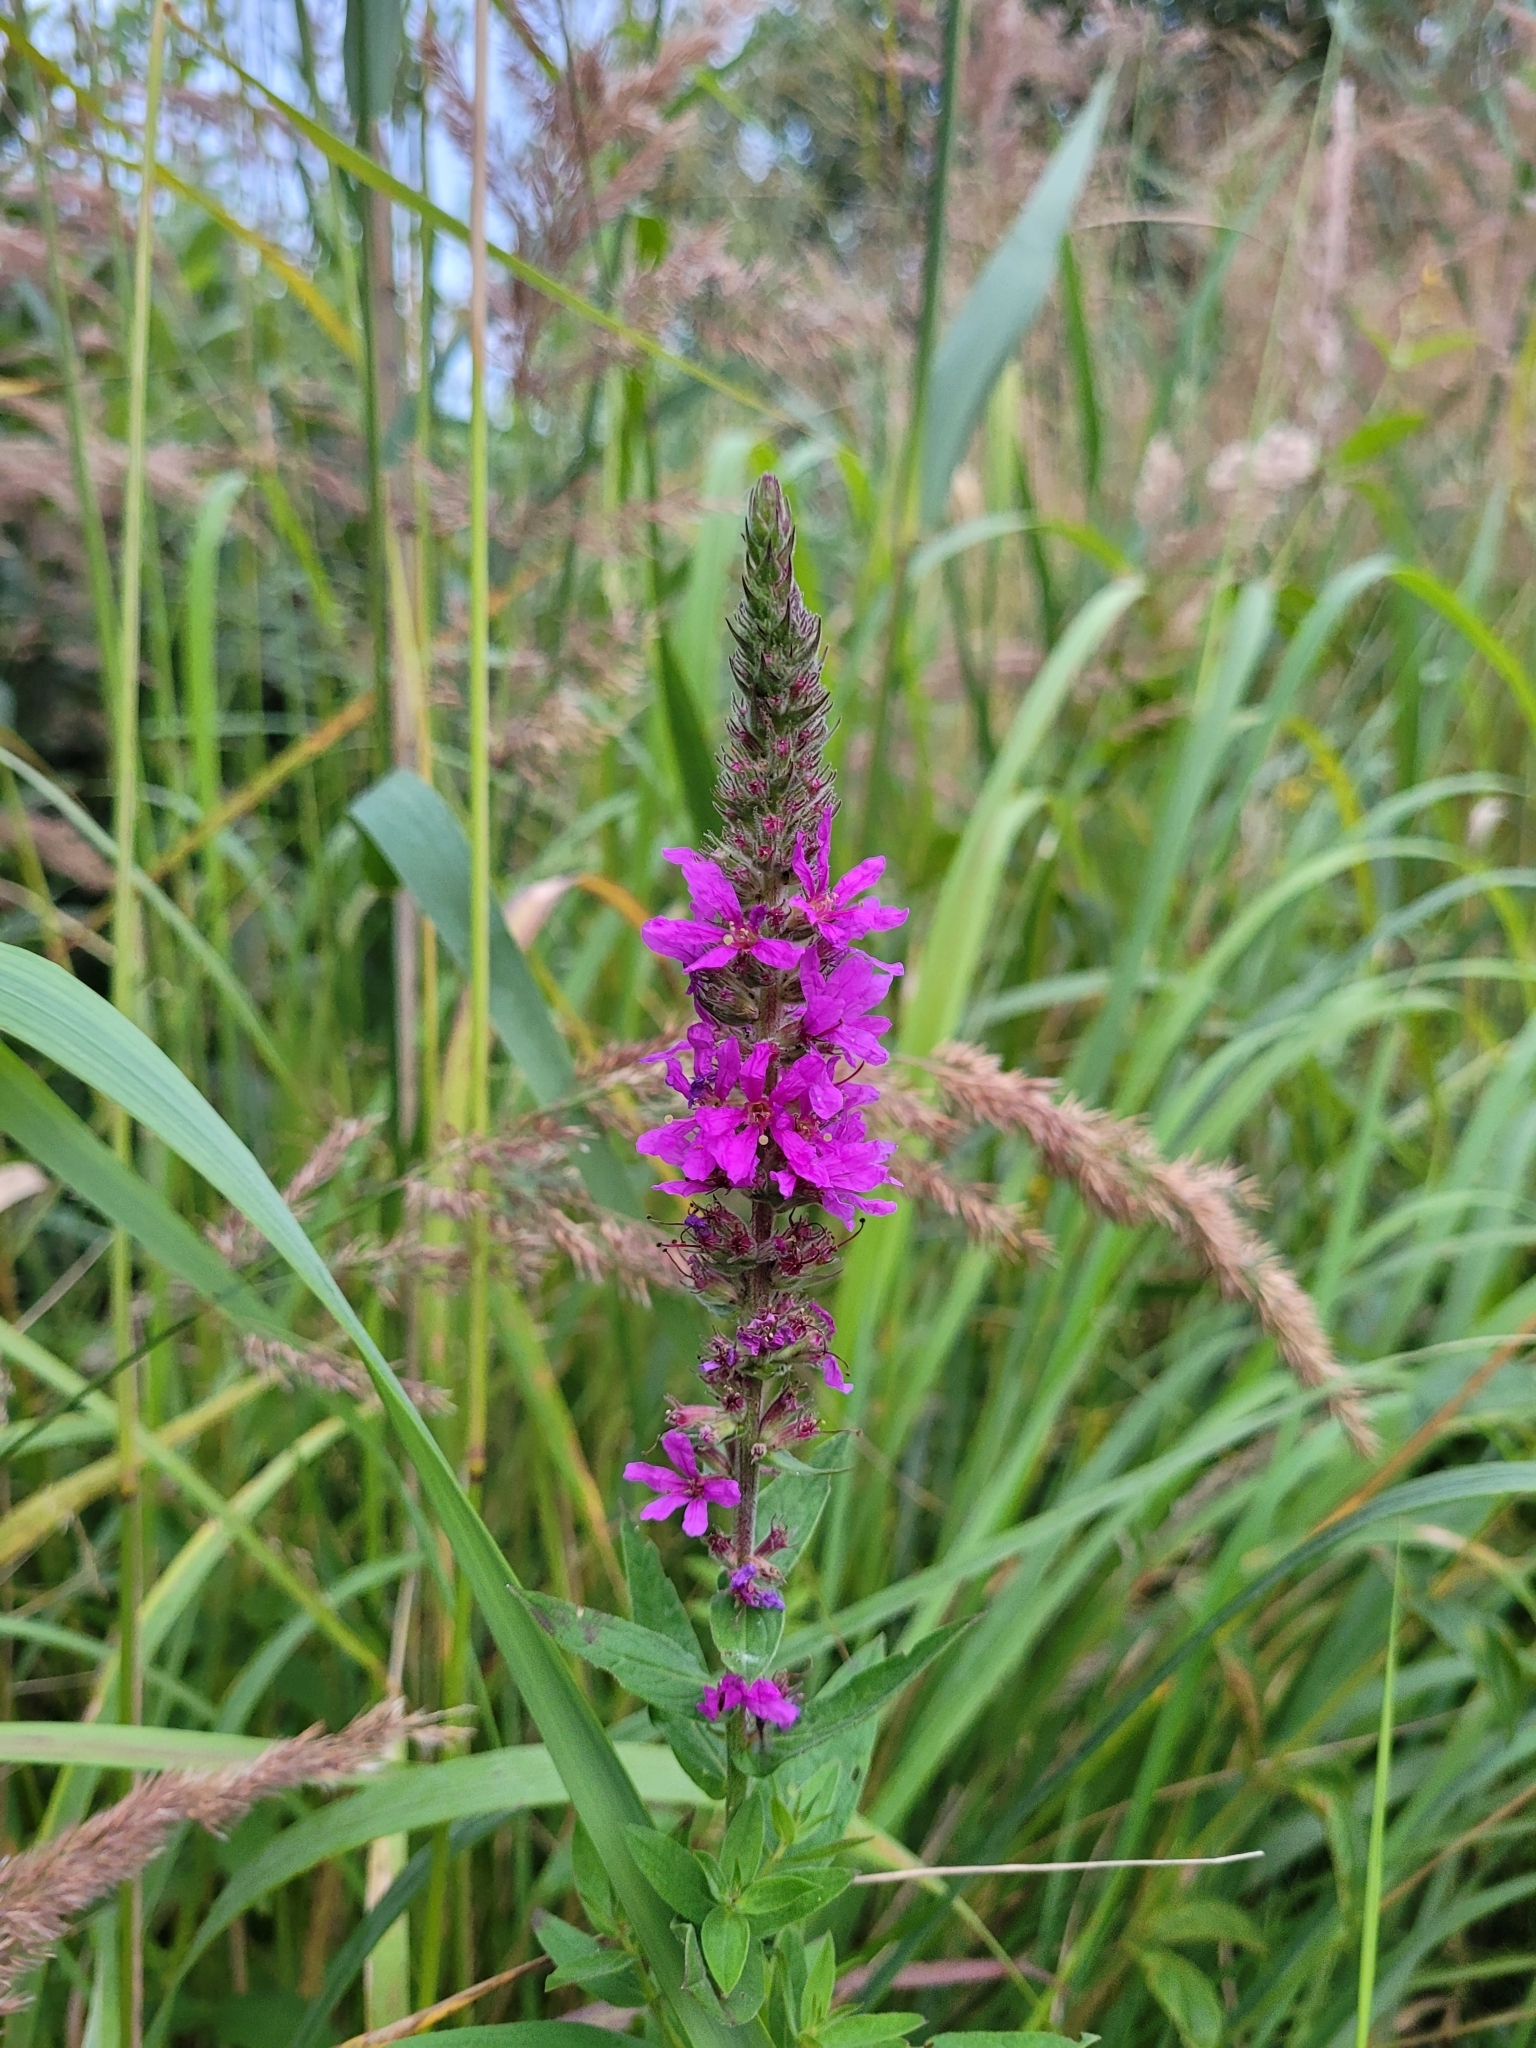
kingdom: Plantae
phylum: Tracheophyta
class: Magnoliopsida
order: Myrtales
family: Lythraceae
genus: Lythrum
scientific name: Lythrum salicaria
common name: Purple loosestrife
